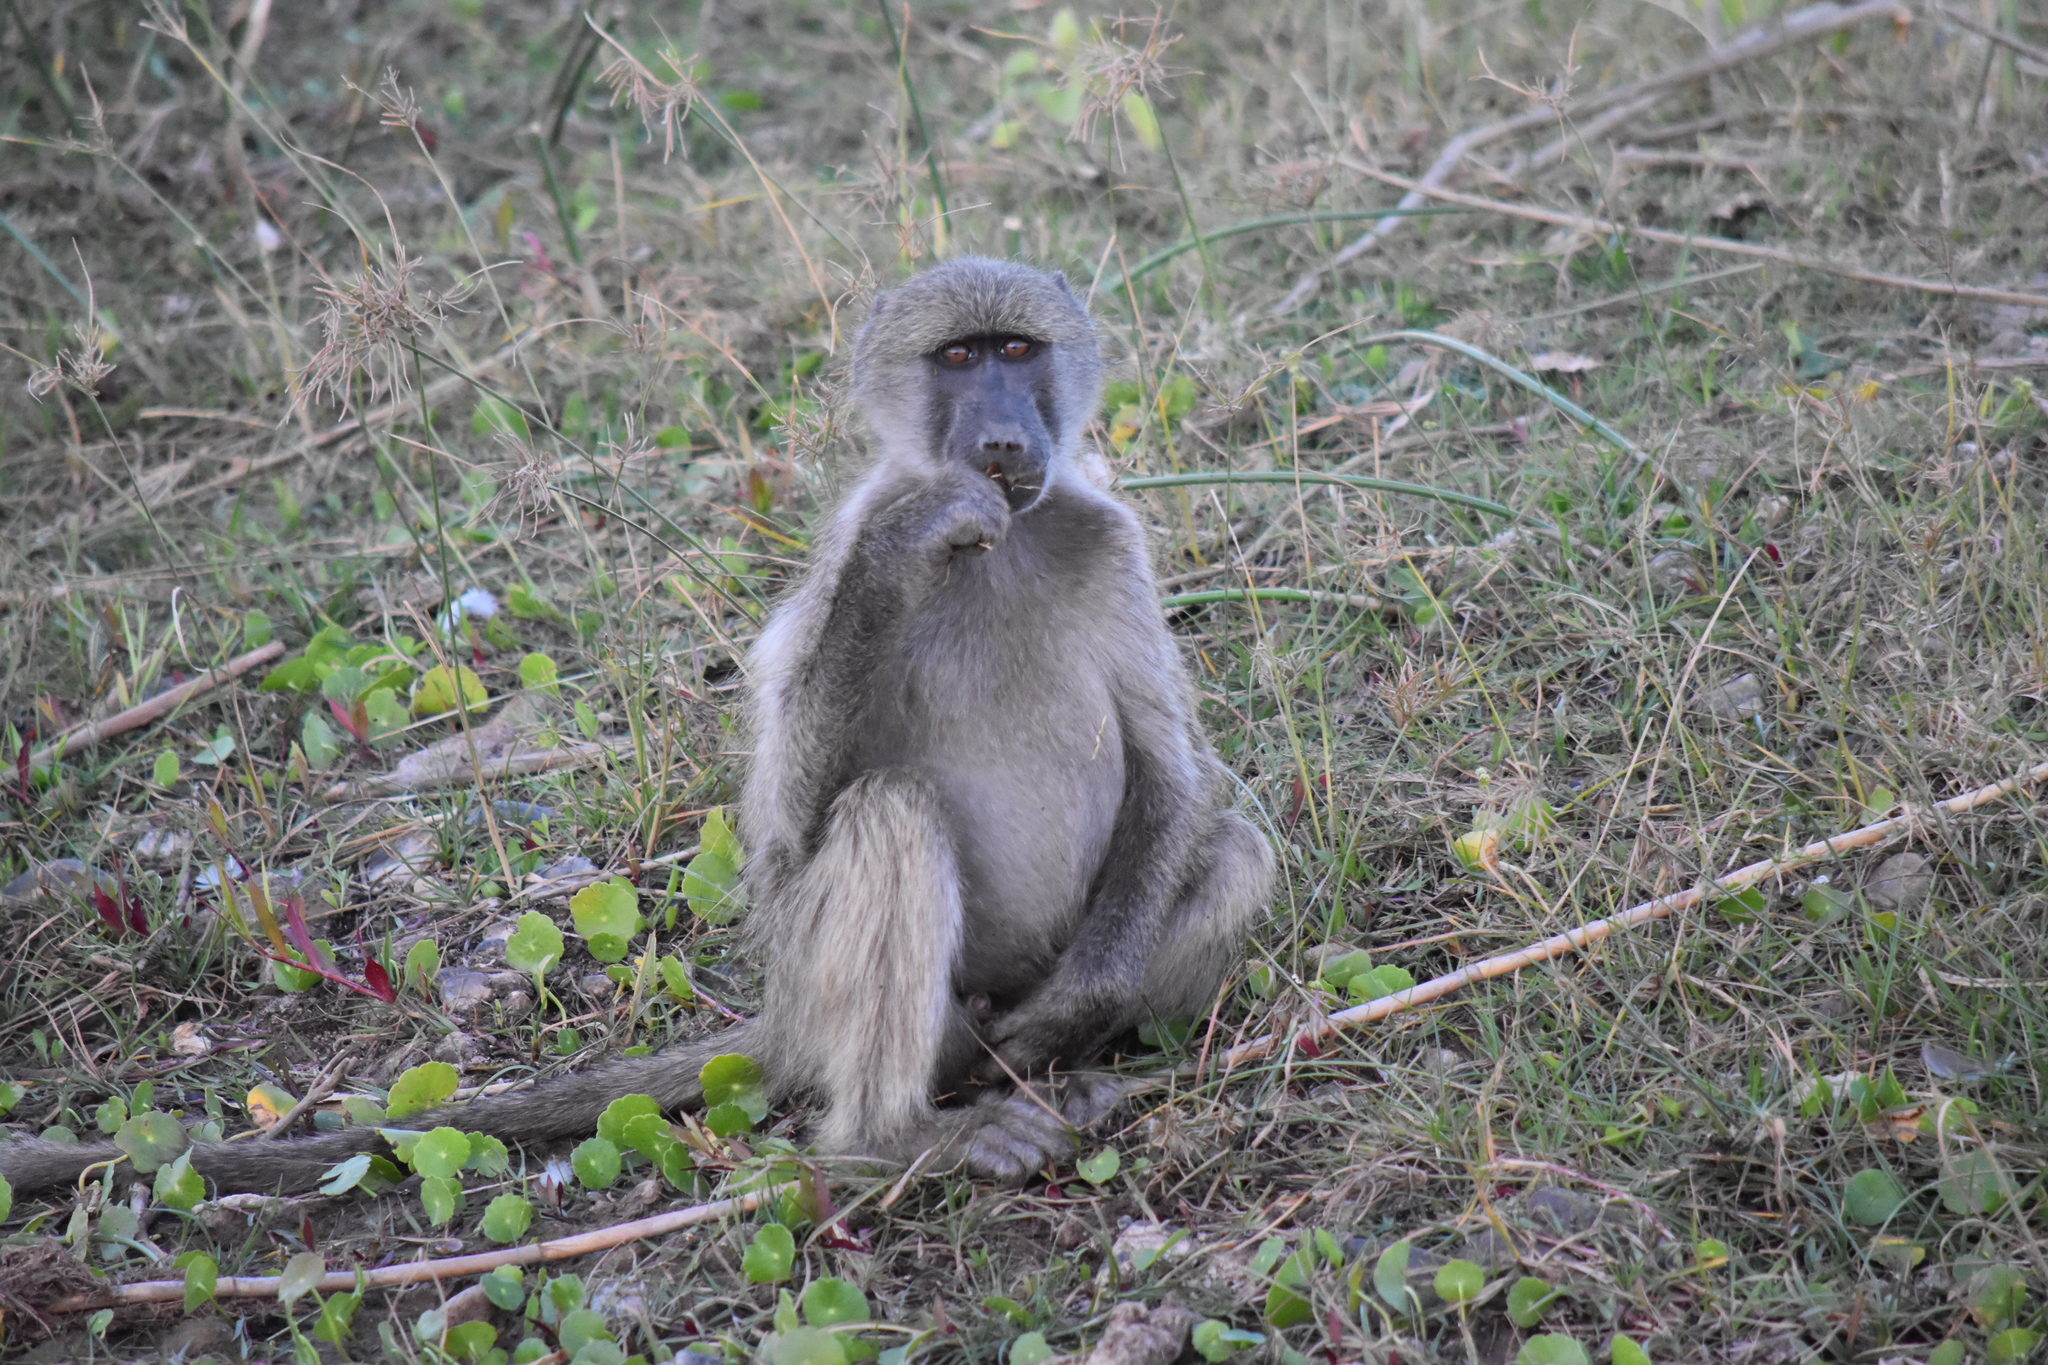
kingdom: Animalia
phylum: Chordata
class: Mammalia
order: Primates
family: Cercopithecidae
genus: Papio
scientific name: Papio ursinus
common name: Chacma baboon
